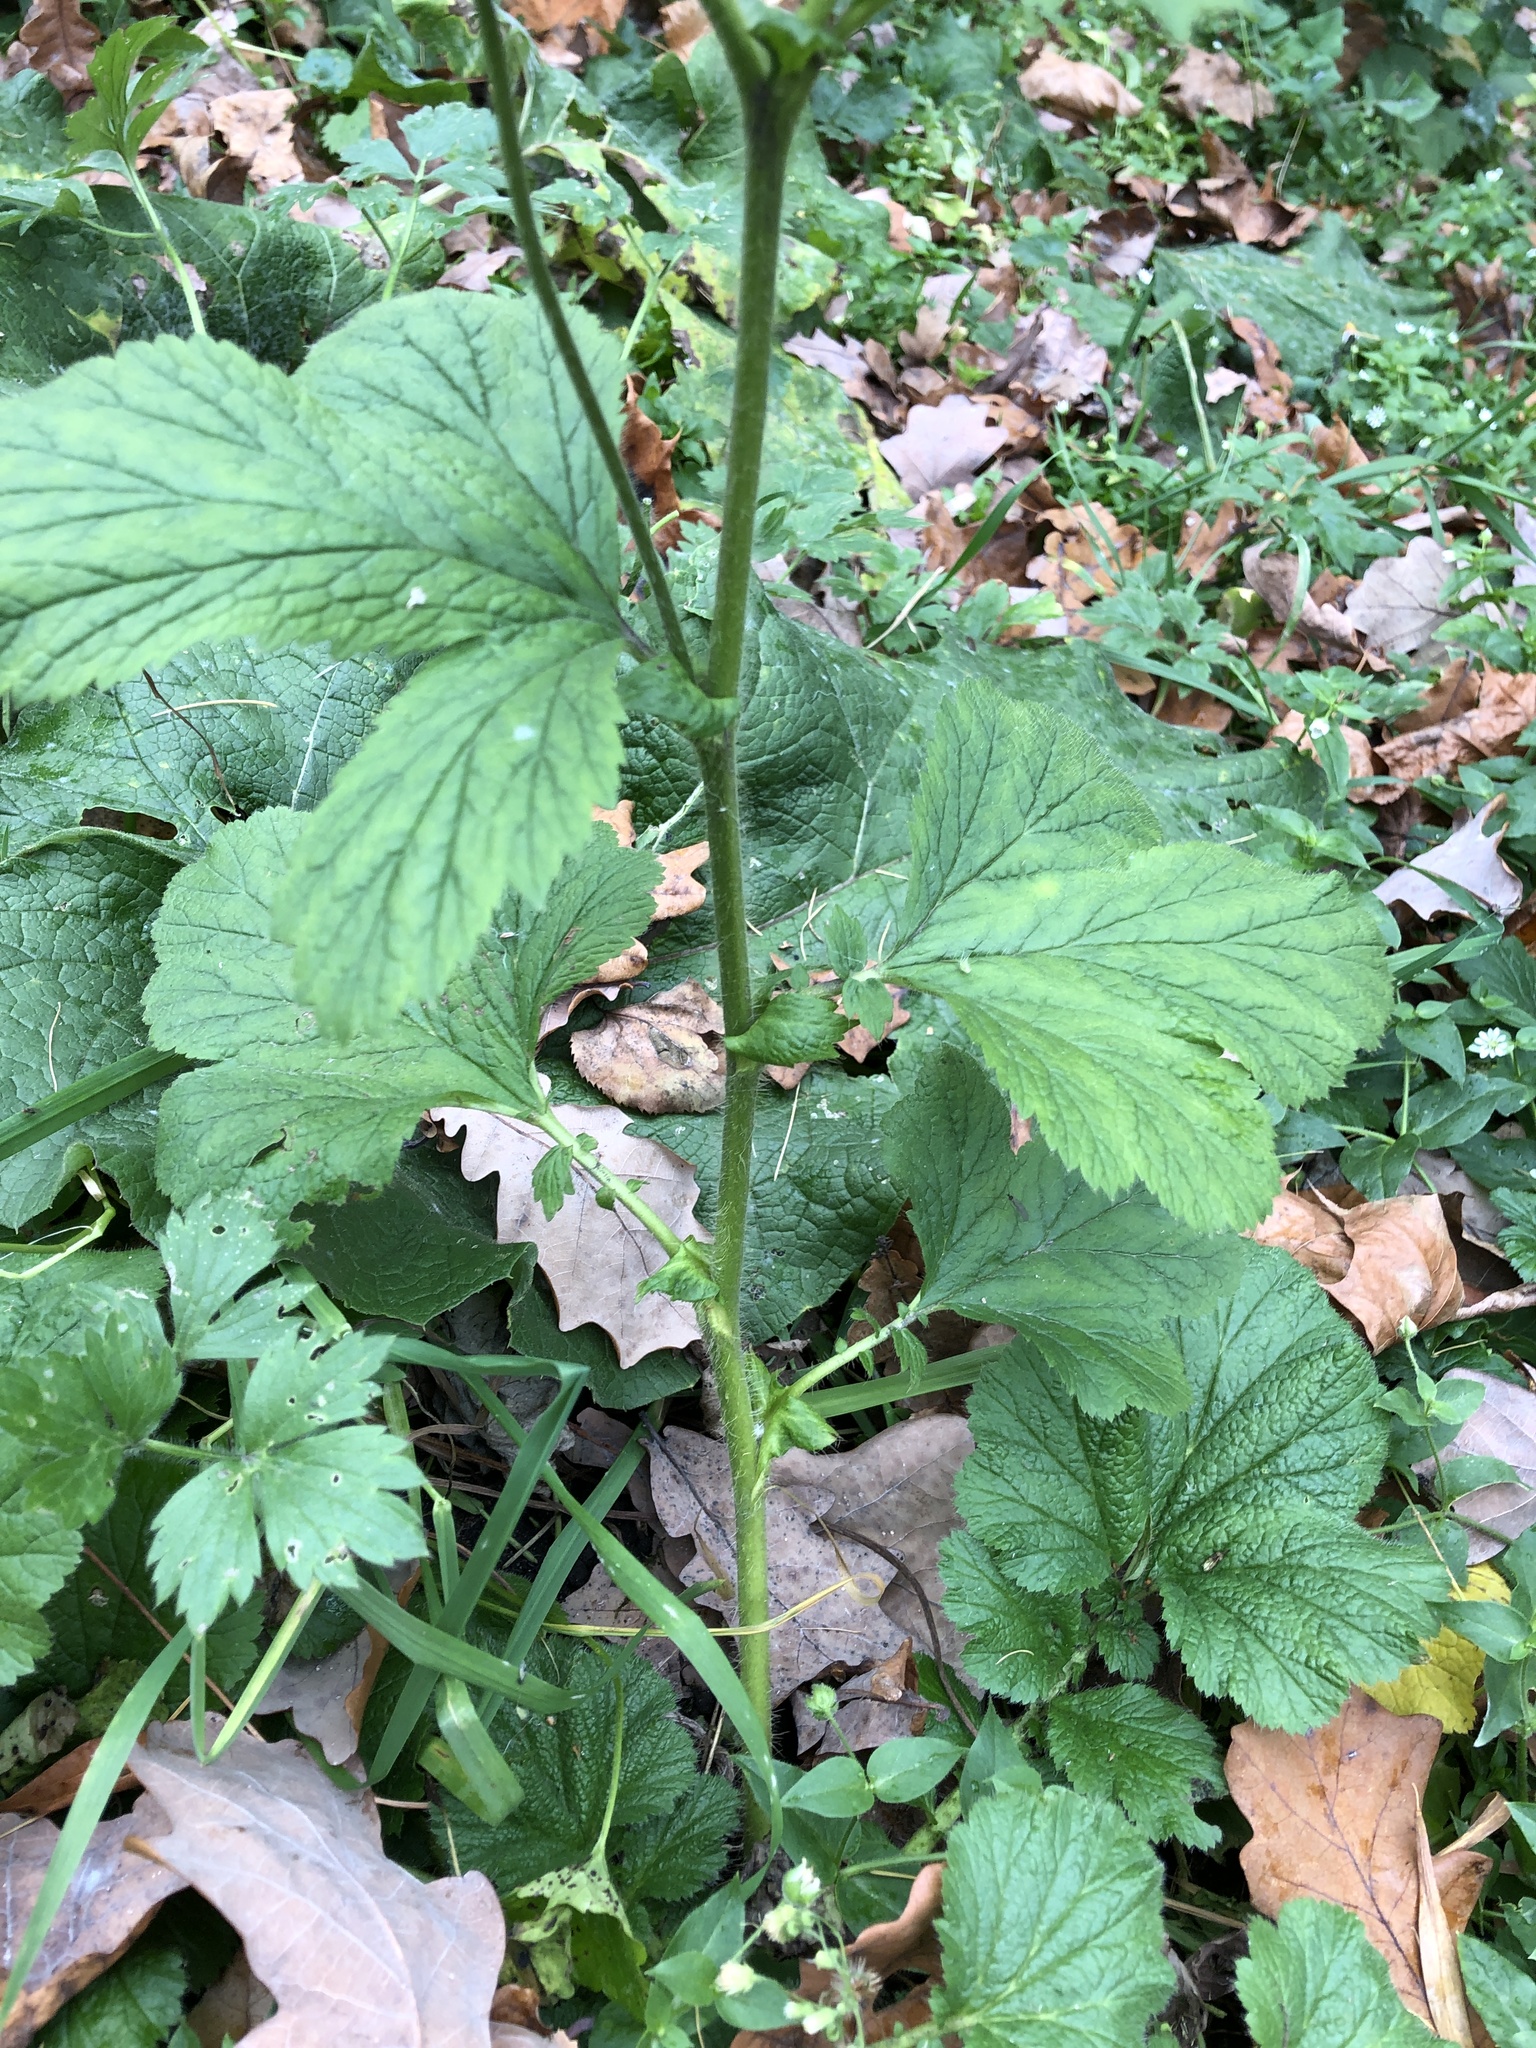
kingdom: Plantae
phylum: Tracheophyta
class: Magnoliopsida
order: Rosales
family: Rosaceae
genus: Geum
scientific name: Geum urbanum
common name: Wood avens
